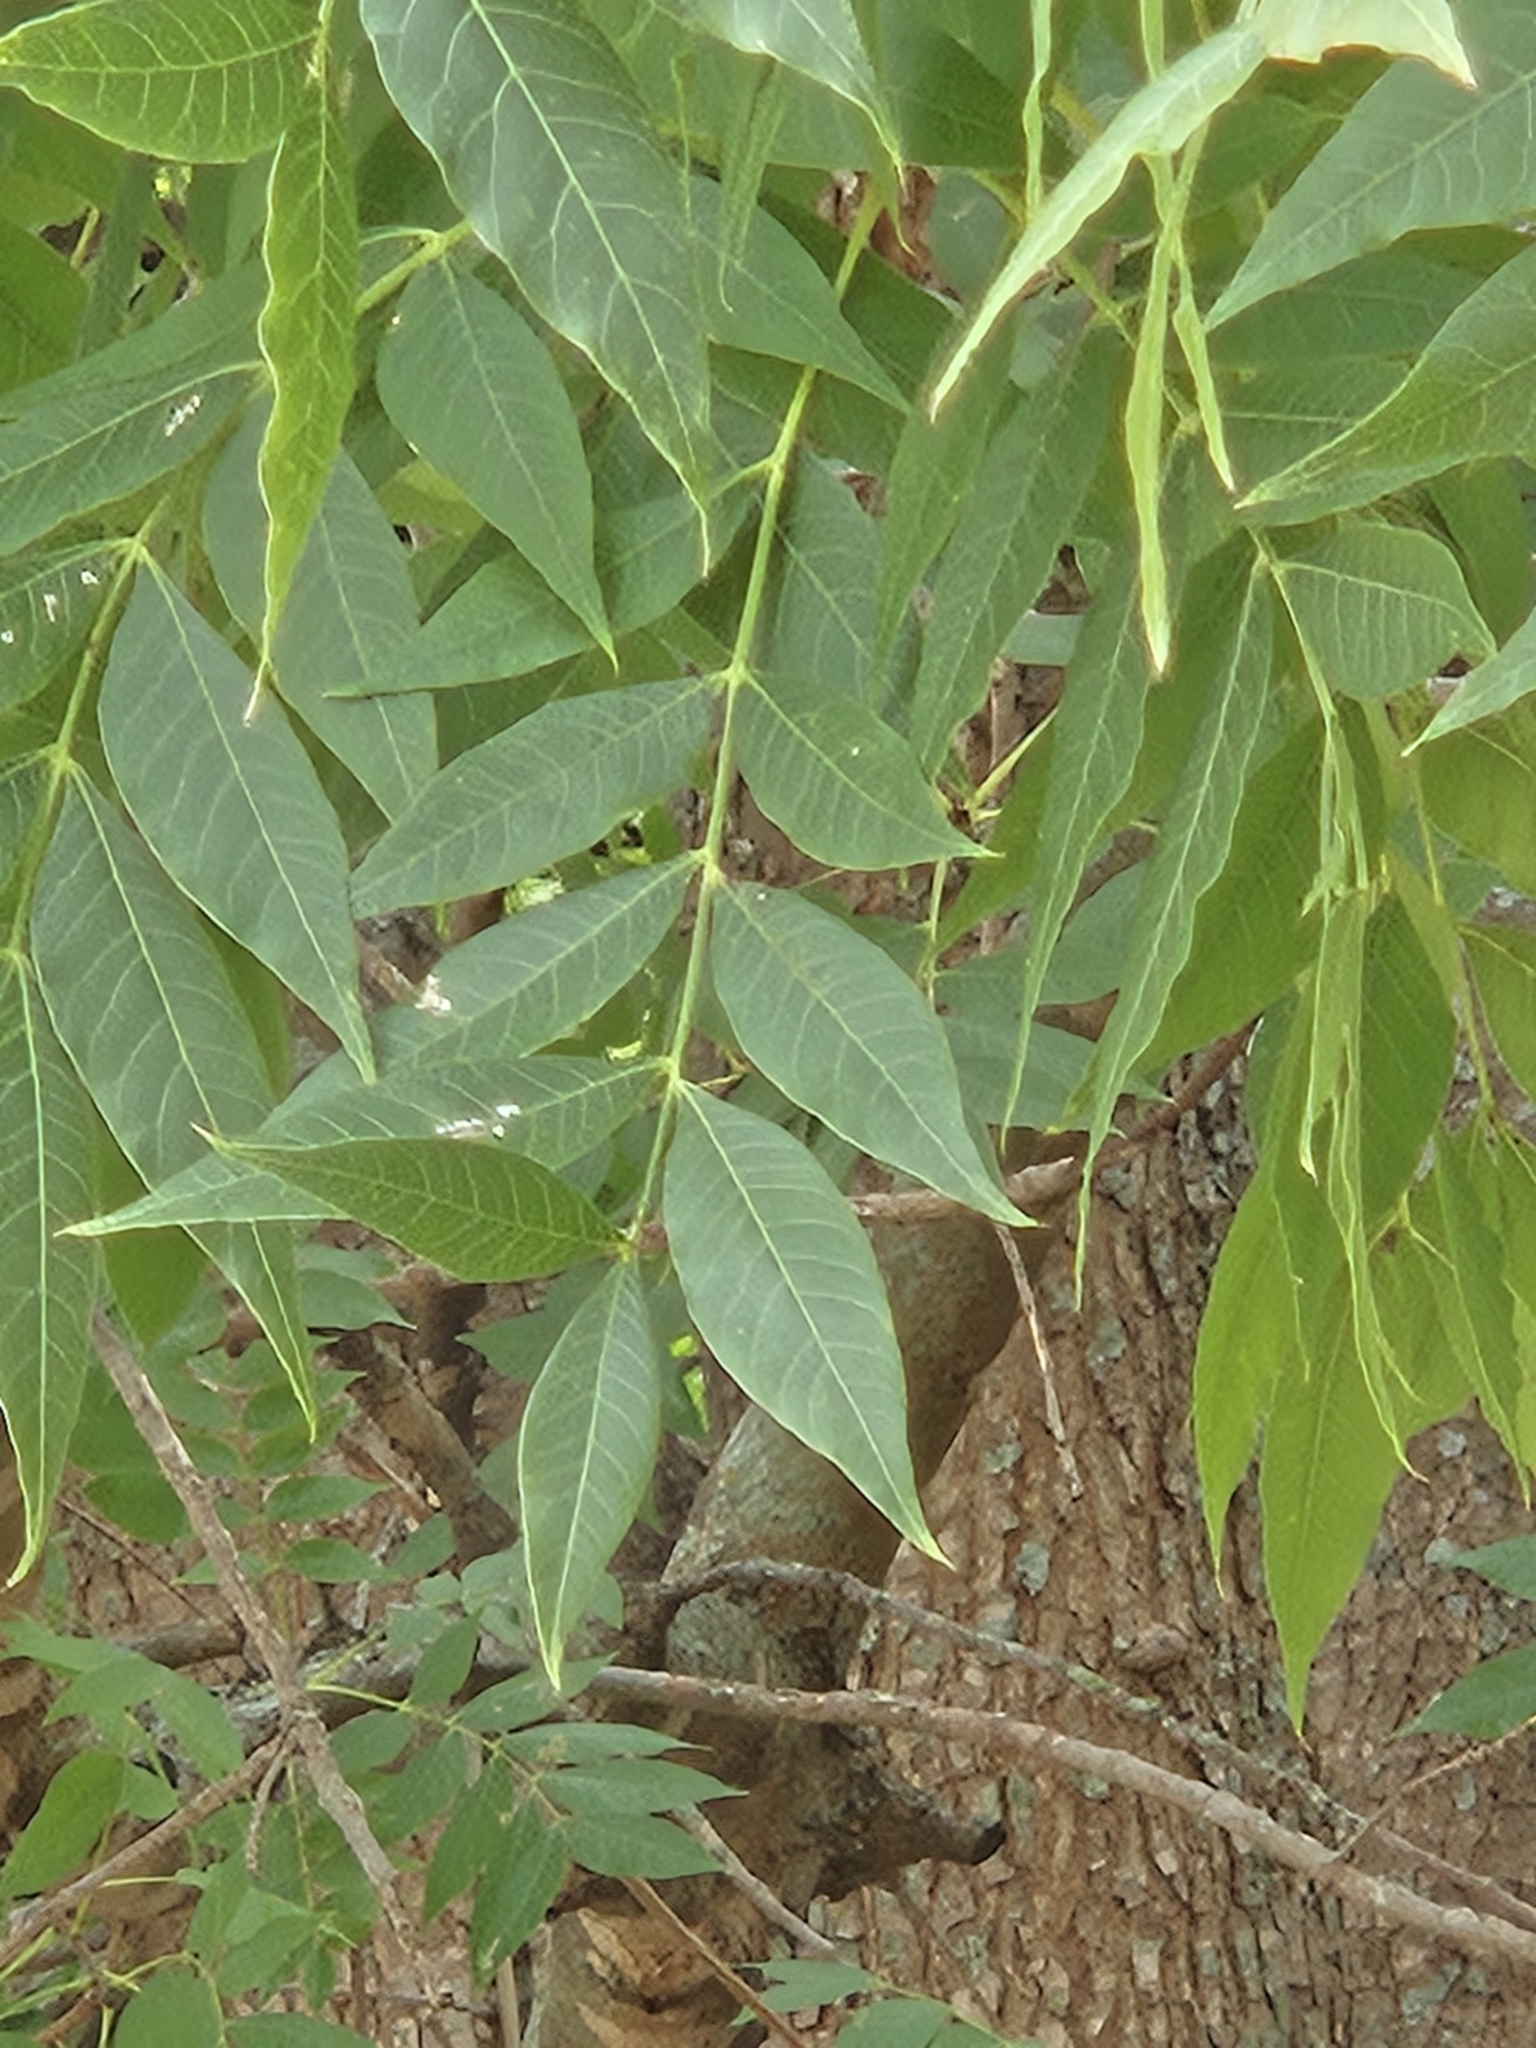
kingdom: Plantae
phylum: Tracheophyta
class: Magnoliopsida
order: Sapindales
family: Anacardiaceae
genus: Pistacia
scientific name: Pistacia chinensis
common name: Chinese pistache
